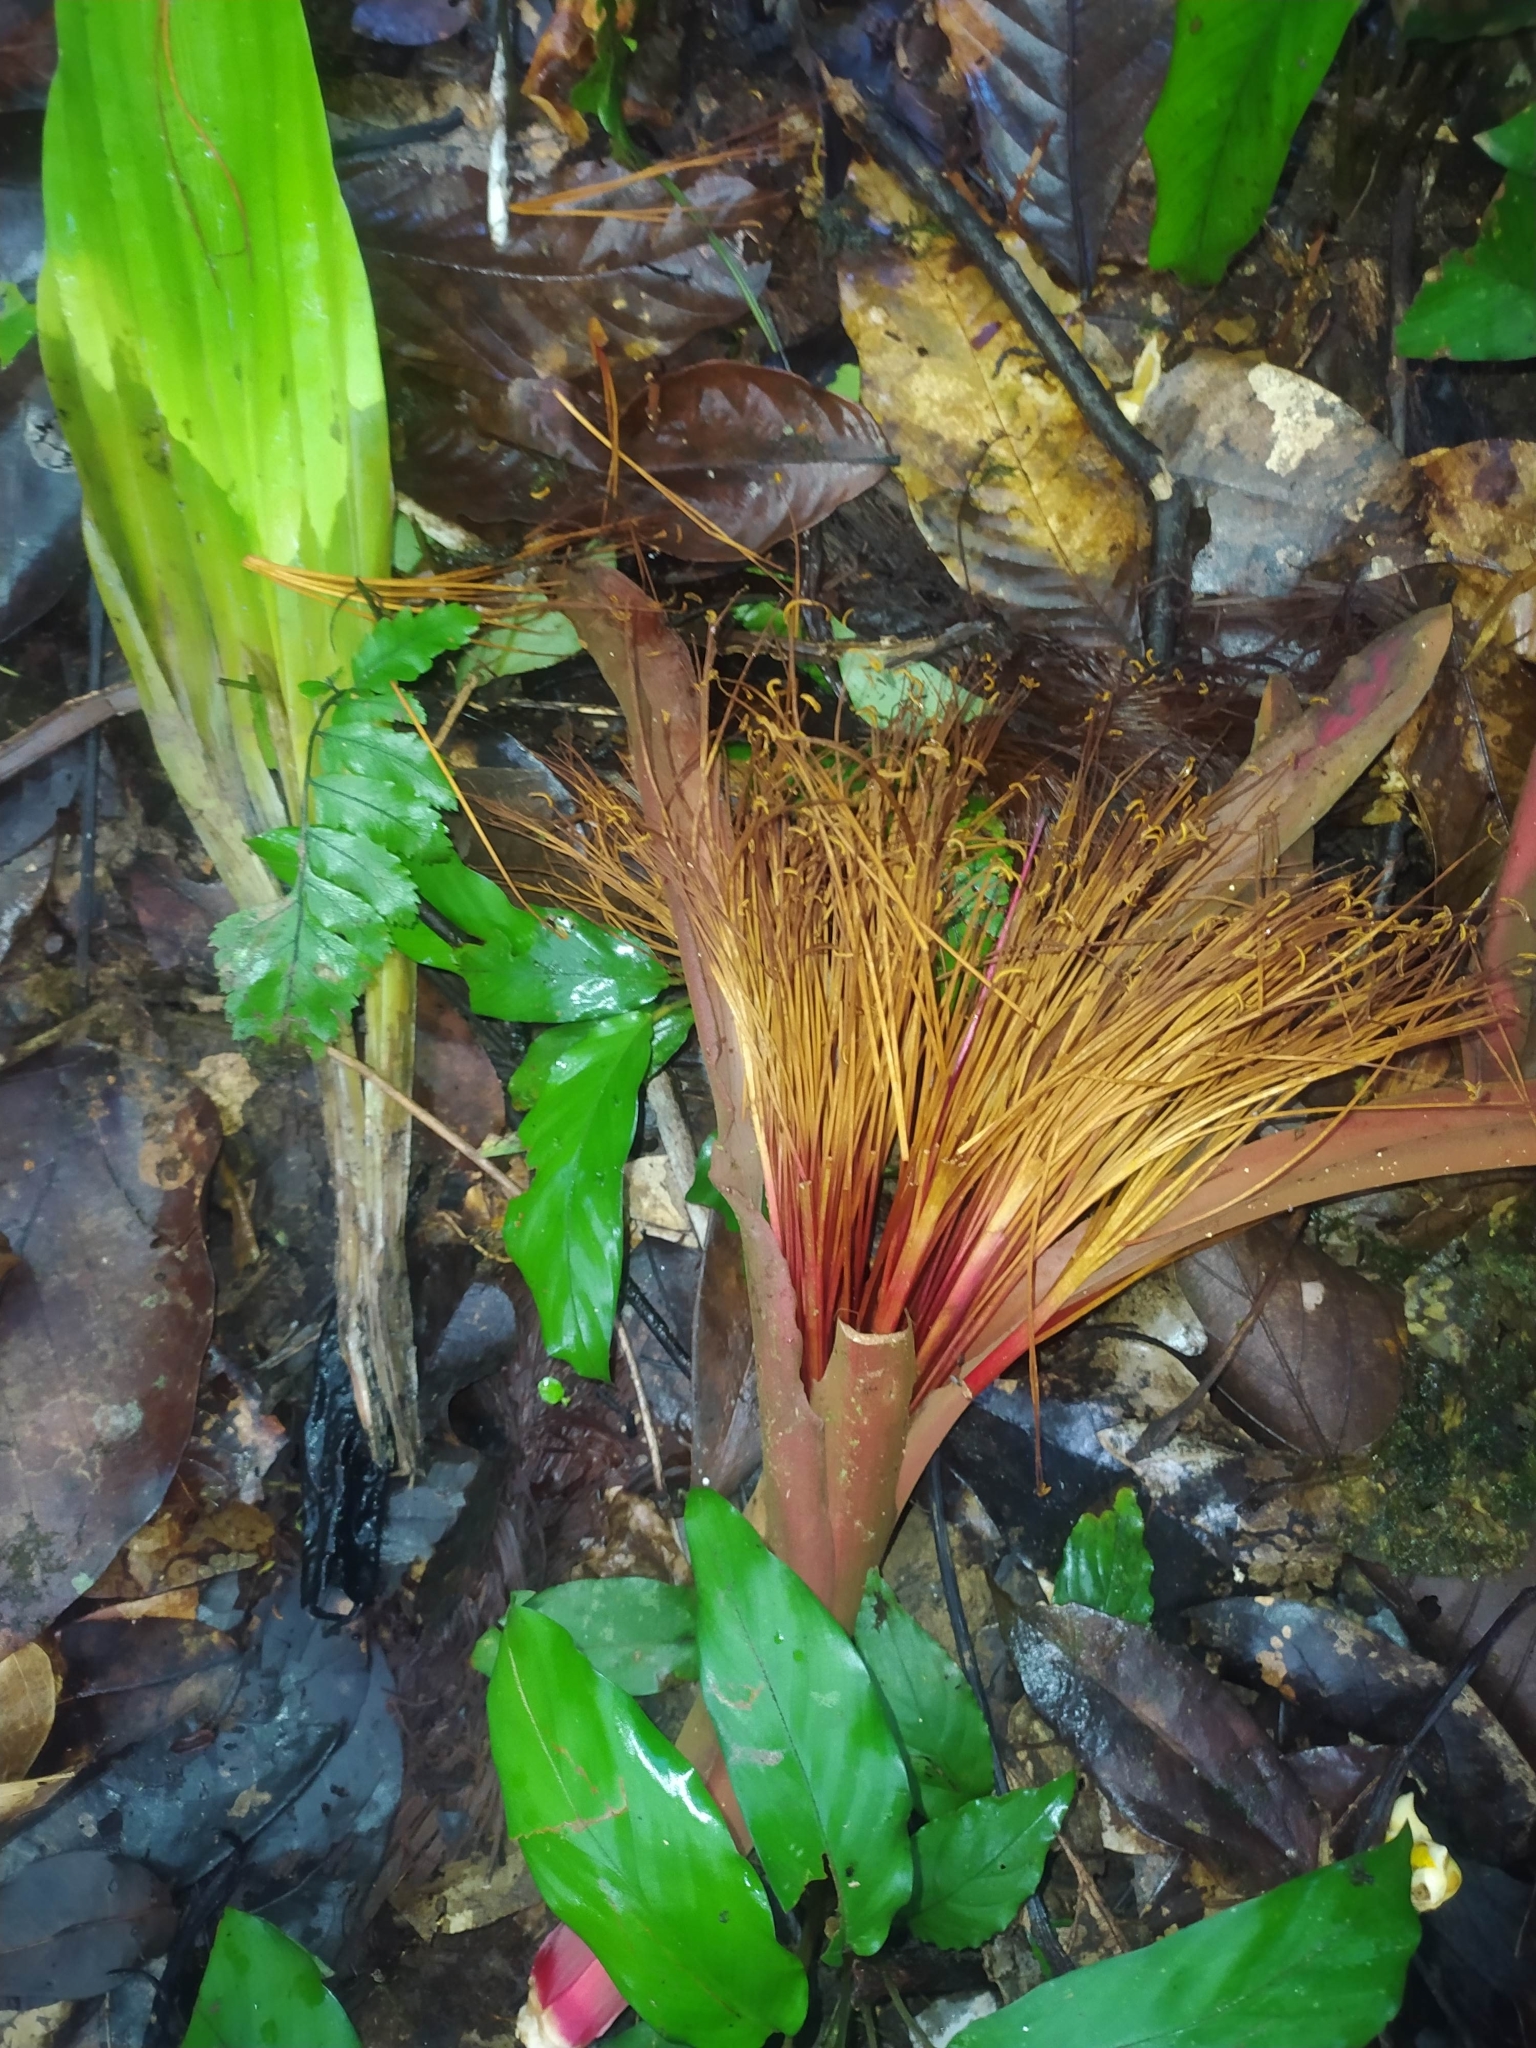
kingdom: Plantae
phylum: Tracheophyta
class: Magnoliopsida
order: Malvales
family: Malvaceae
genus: Pachira
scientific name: Pachira insignis
